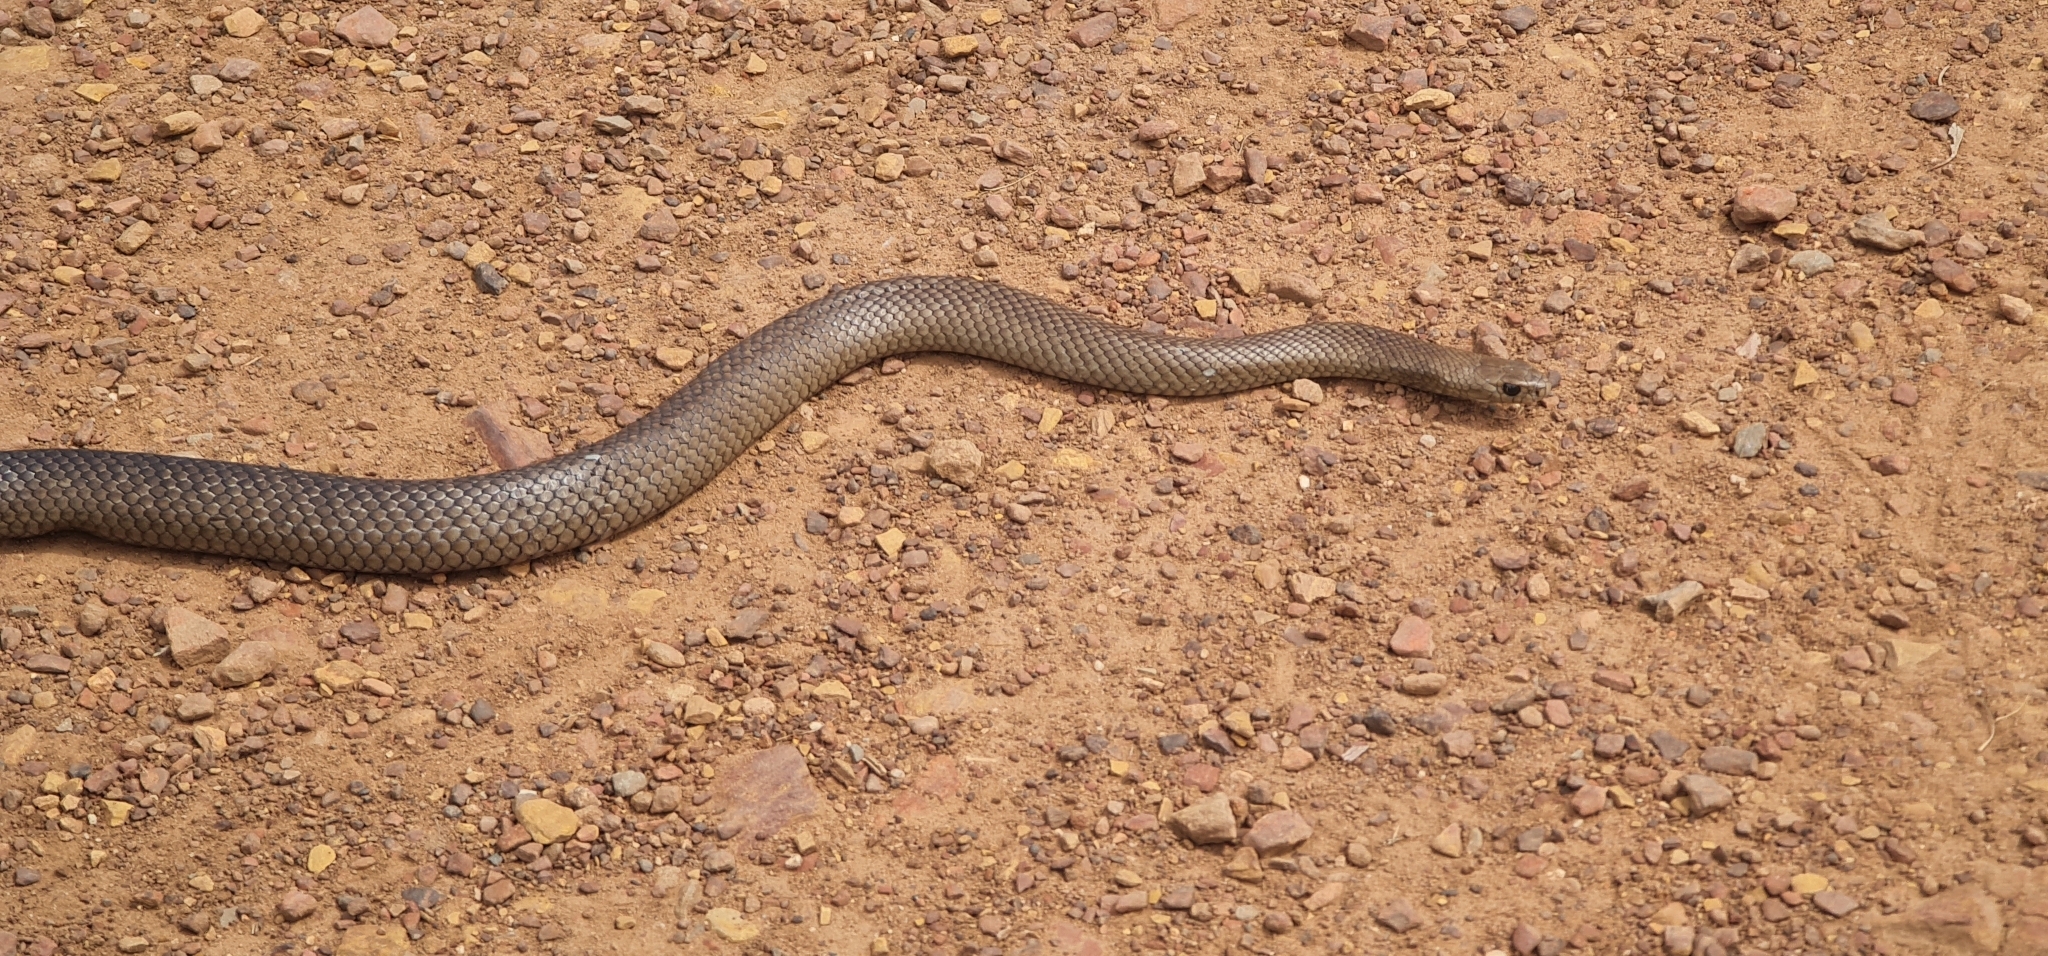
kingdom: Animalia
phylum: Chordata
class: Squamata
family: Elapidae
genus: Pseudonaja
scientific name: Pseudonaja textilis
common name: Eastern brown snake
